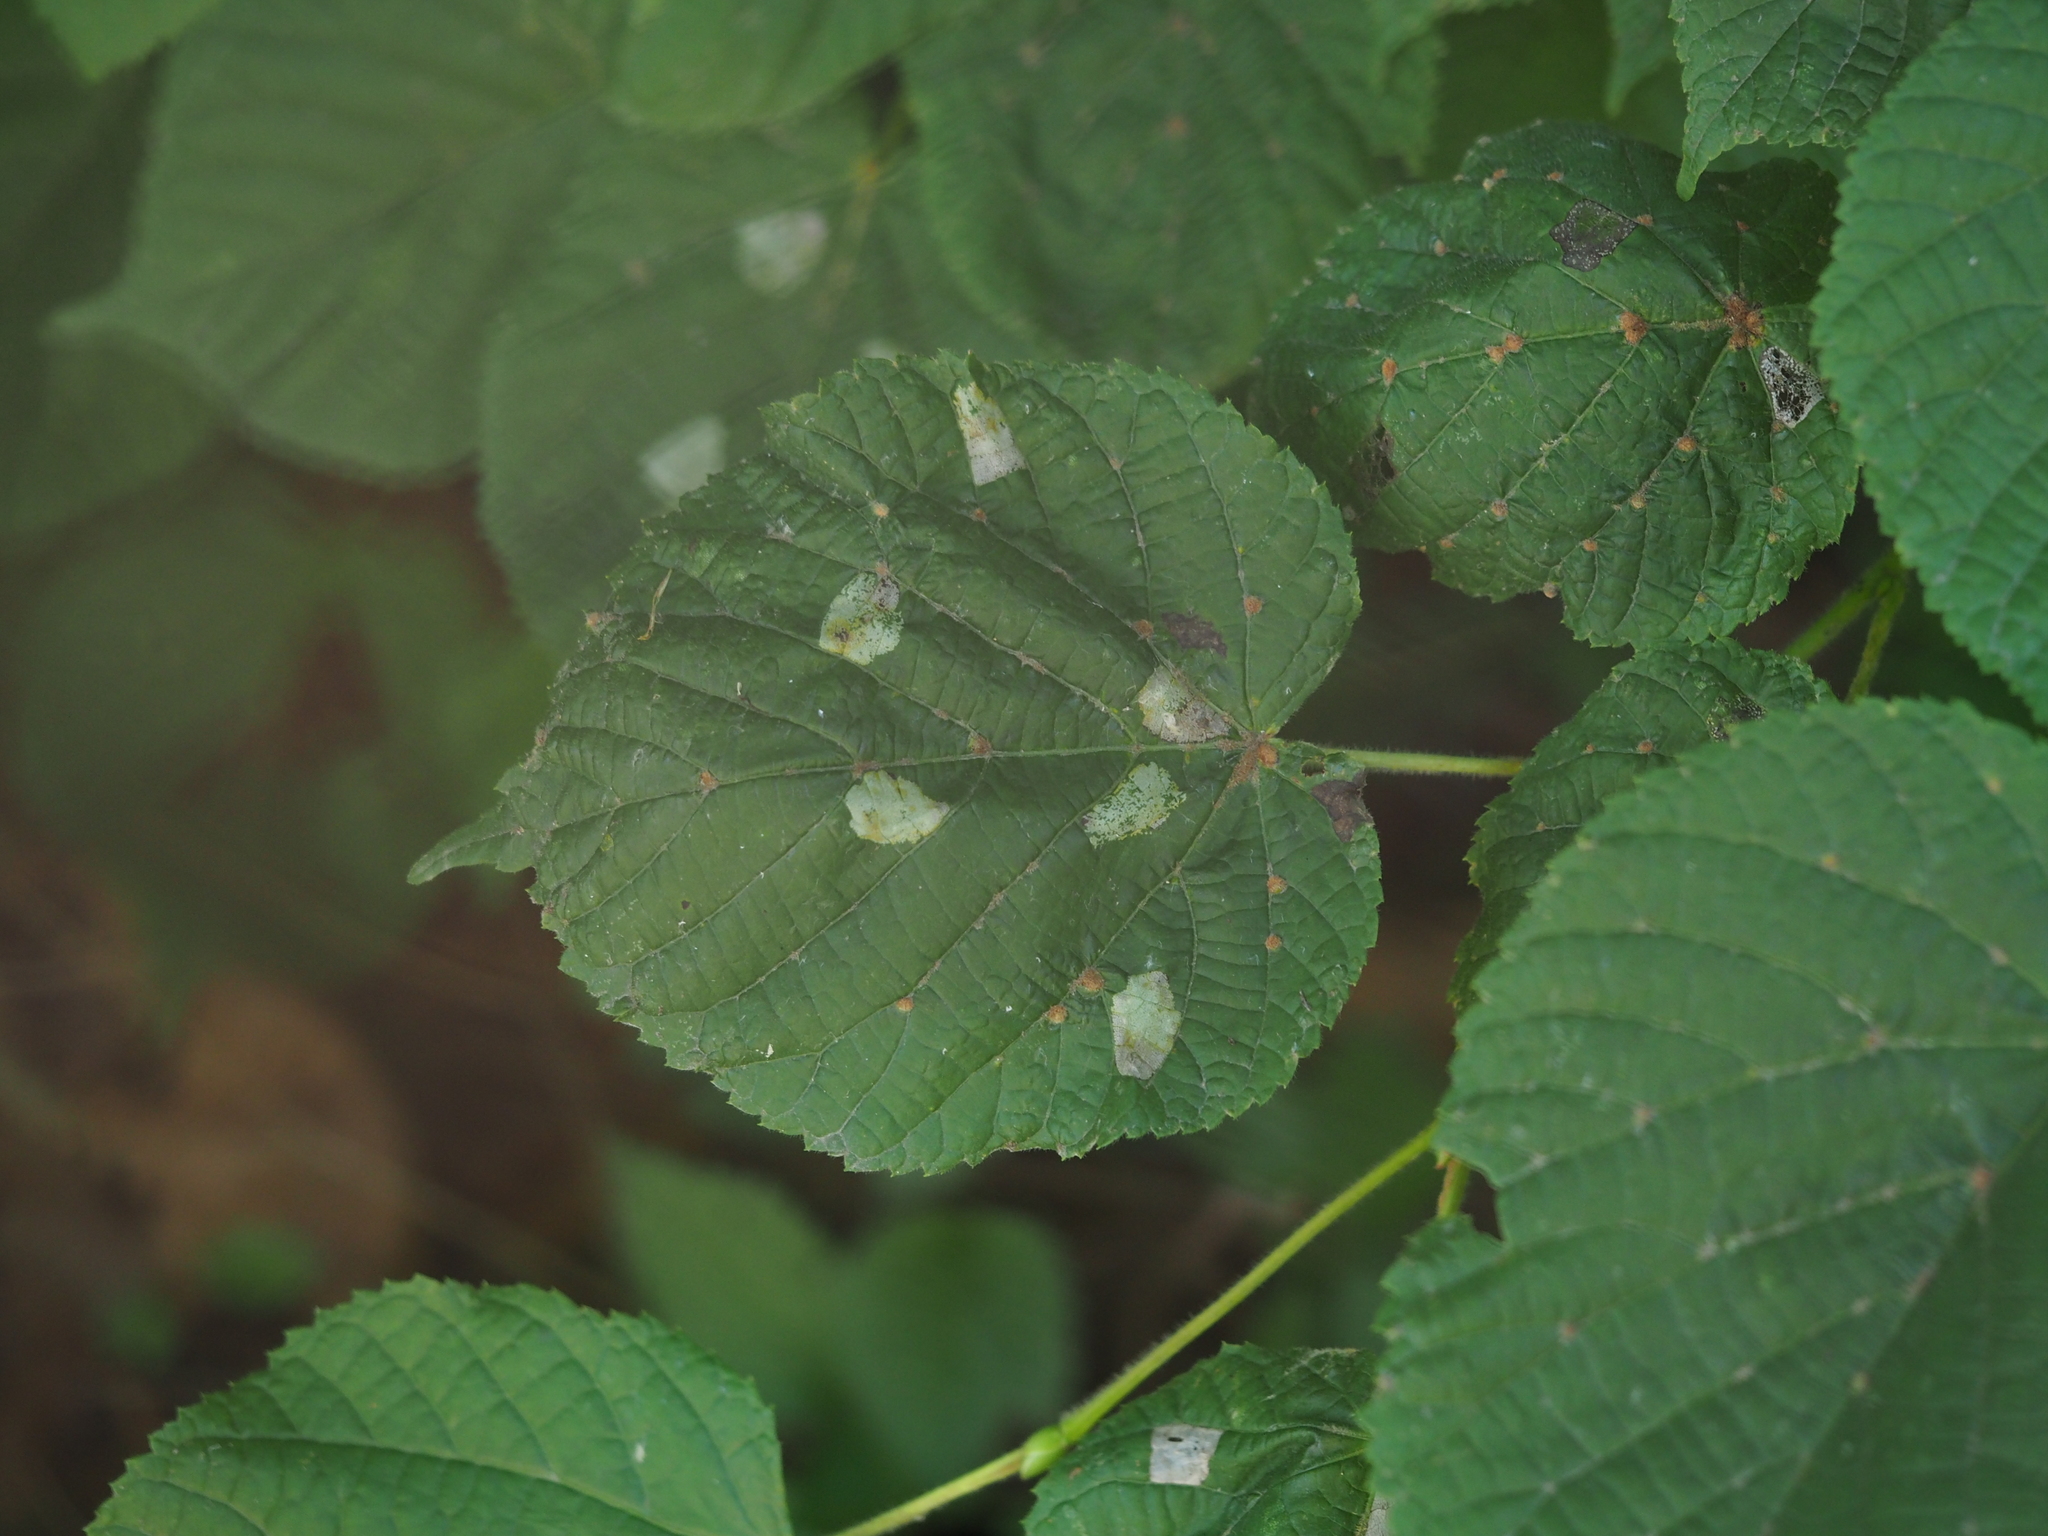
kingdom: Animalia
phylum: Arthropoda
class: Insecta
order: Lepidoptera
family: Gracillariidae
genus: Phyllonorycter
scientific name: Phyllonorycter issikii
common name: Linden midget
